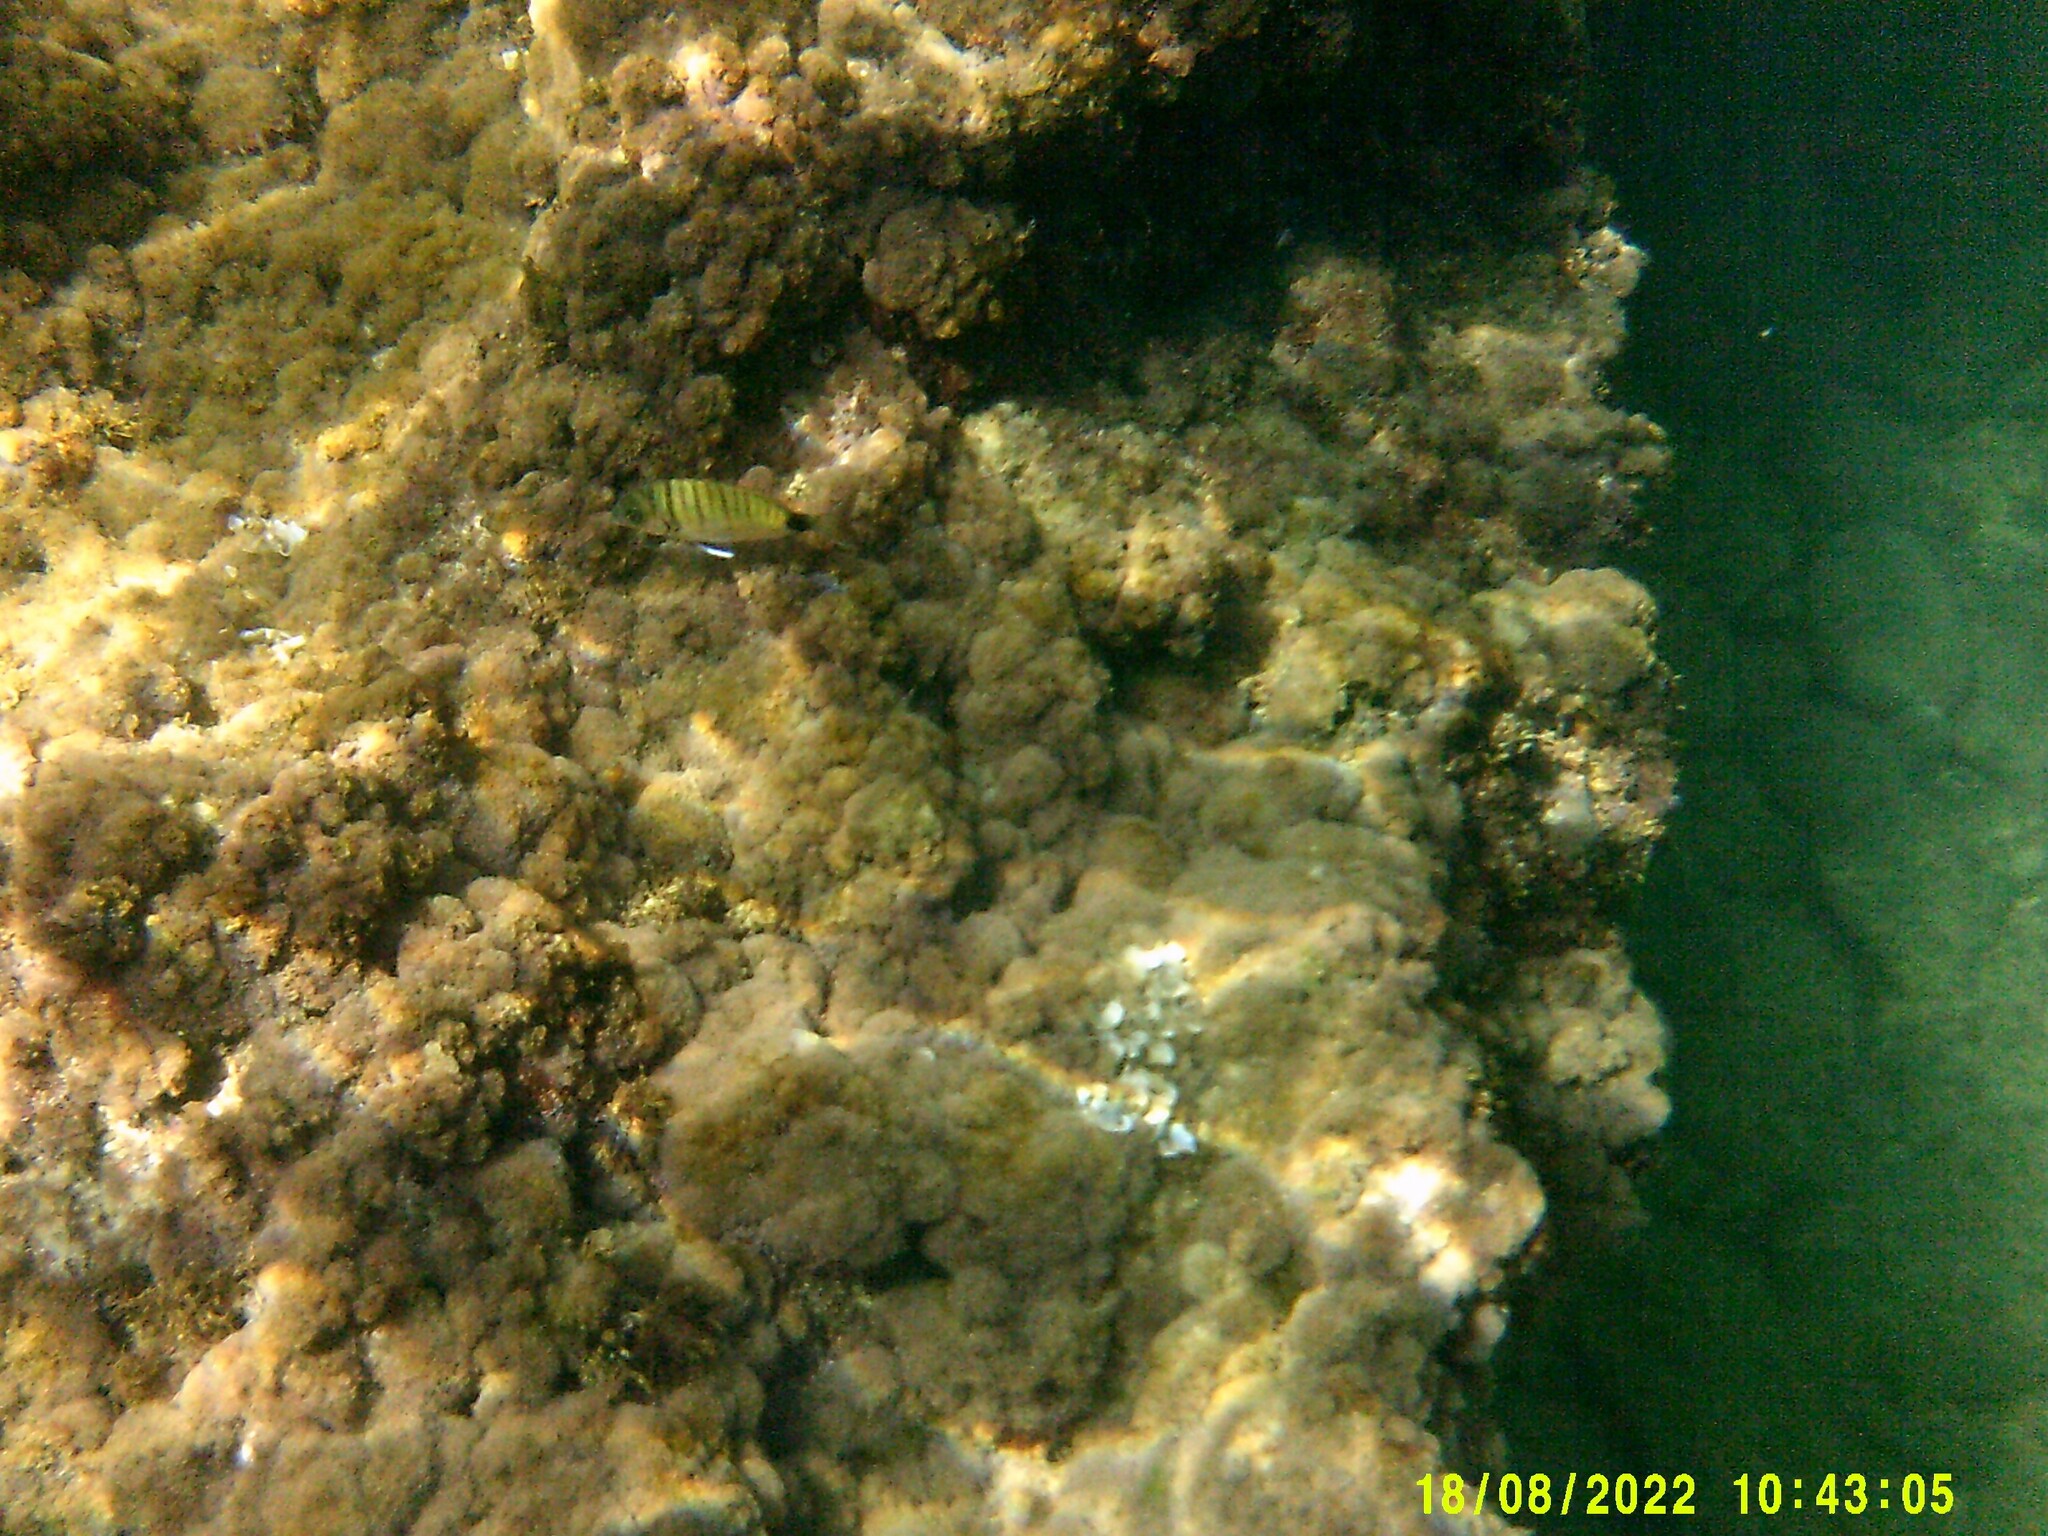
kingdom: Animalia
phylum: Chordata
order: Perciformes
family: Sparidae
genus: Diplodus
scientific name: Diplodus sargus
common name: White seabream
